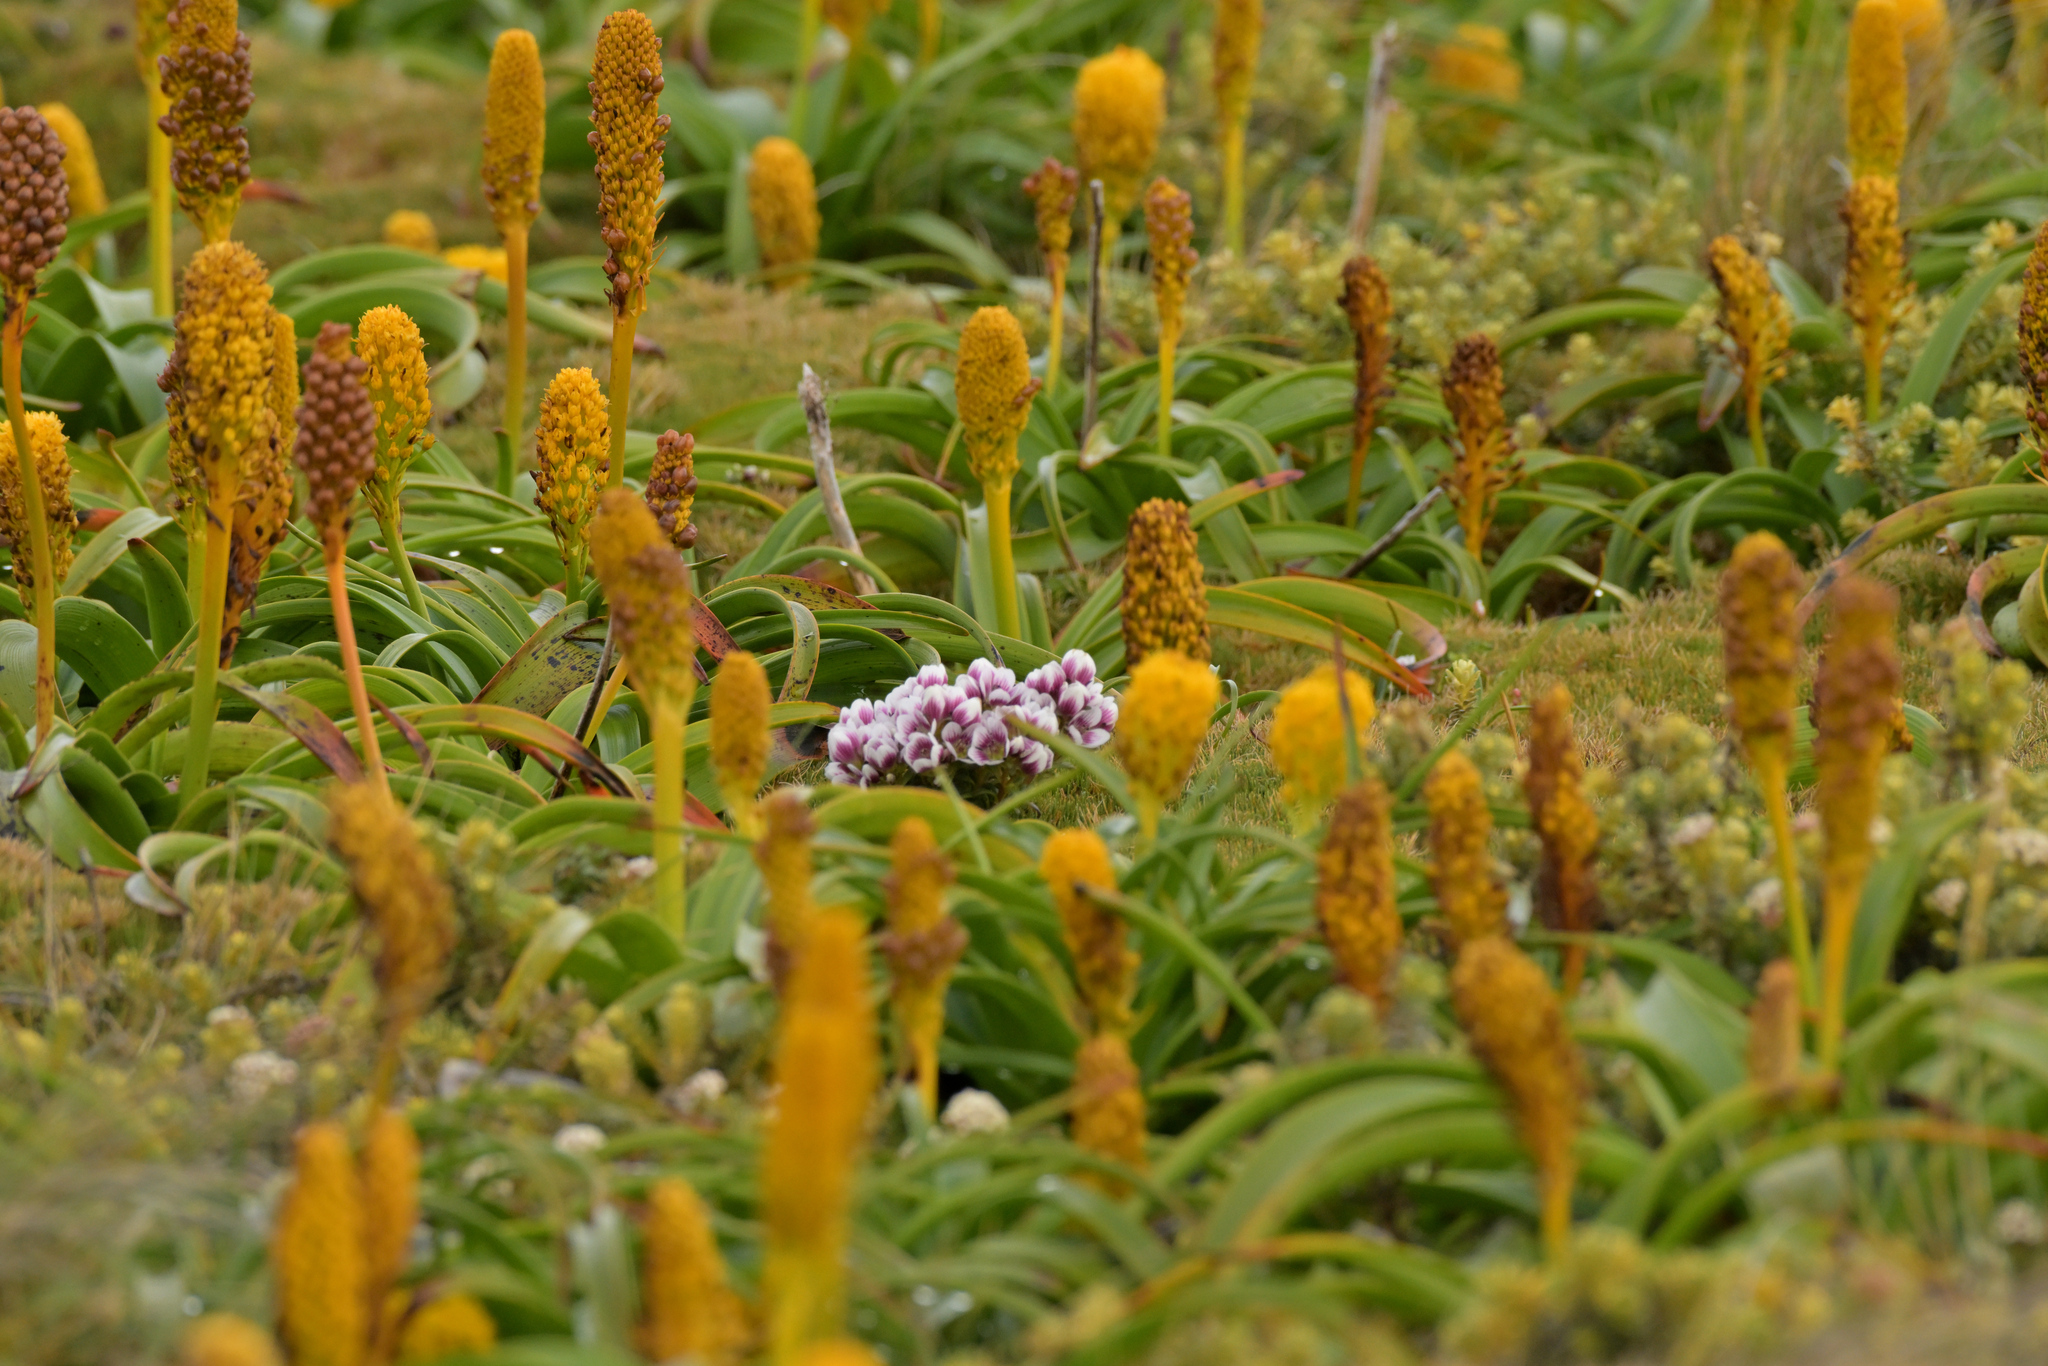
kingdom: Plantae
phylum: Tracheophyta
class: Magnoliopsida
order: Gentianales
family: Gentianaceae
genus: Gentianella
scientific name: Gentianella concinna
